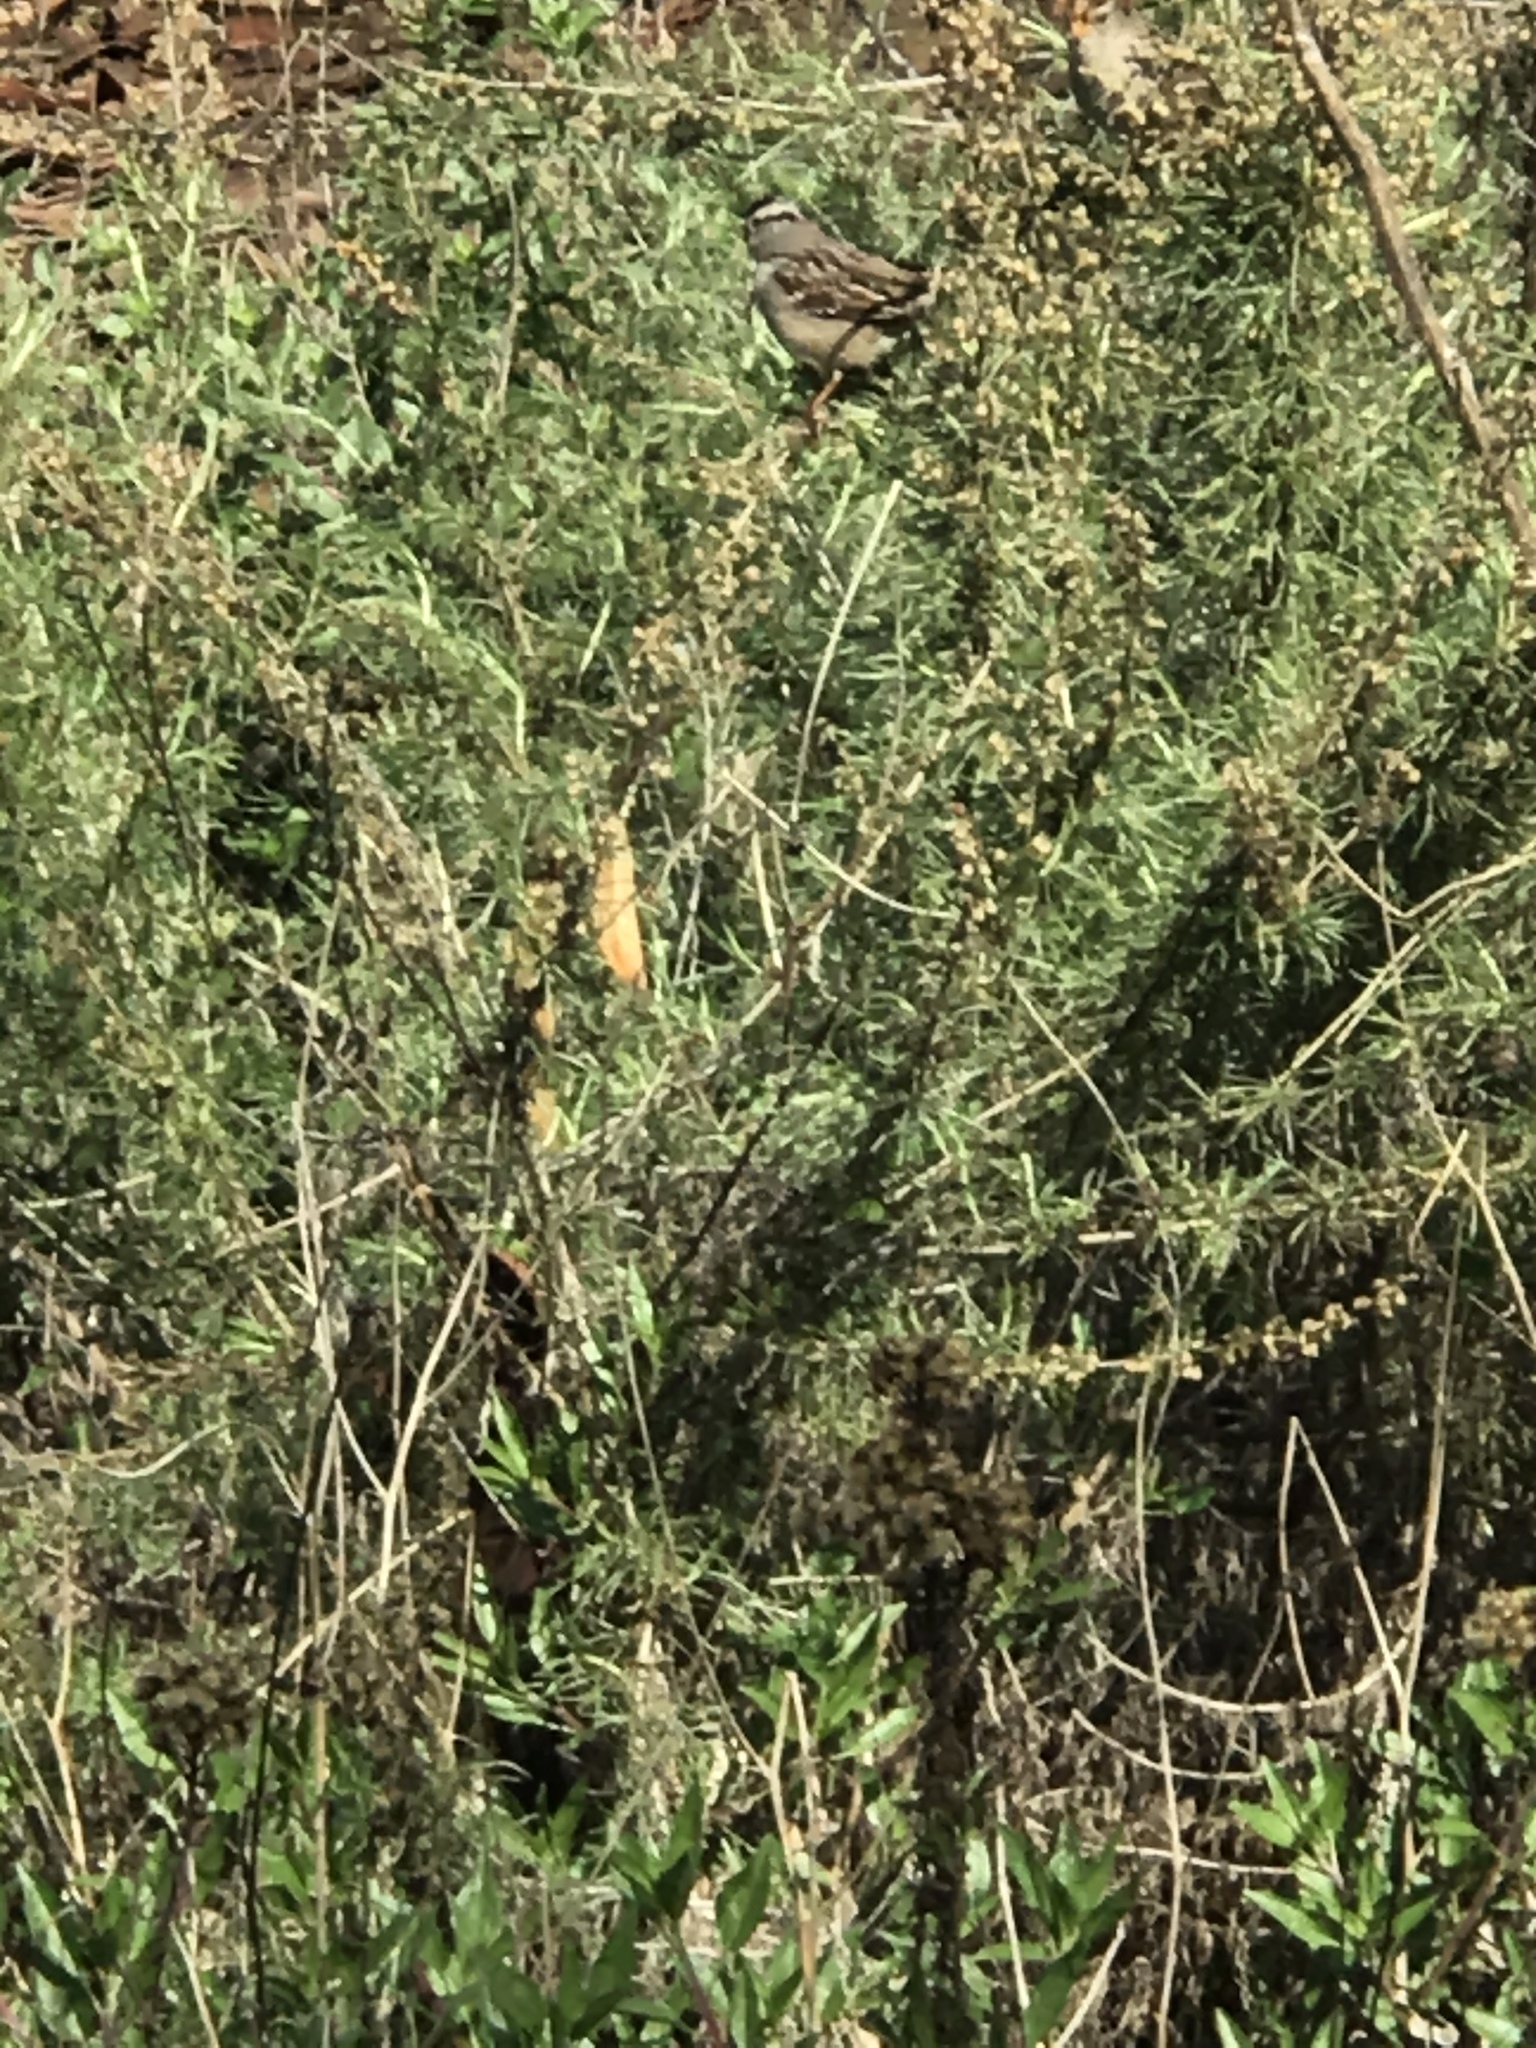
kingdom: Animalia
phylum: Chordata
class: Aves
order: Passeriformes
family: Passerellidae
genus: Zonotrichia
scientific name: Zonotrichia leucophrys
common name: White-crowned sparrow
